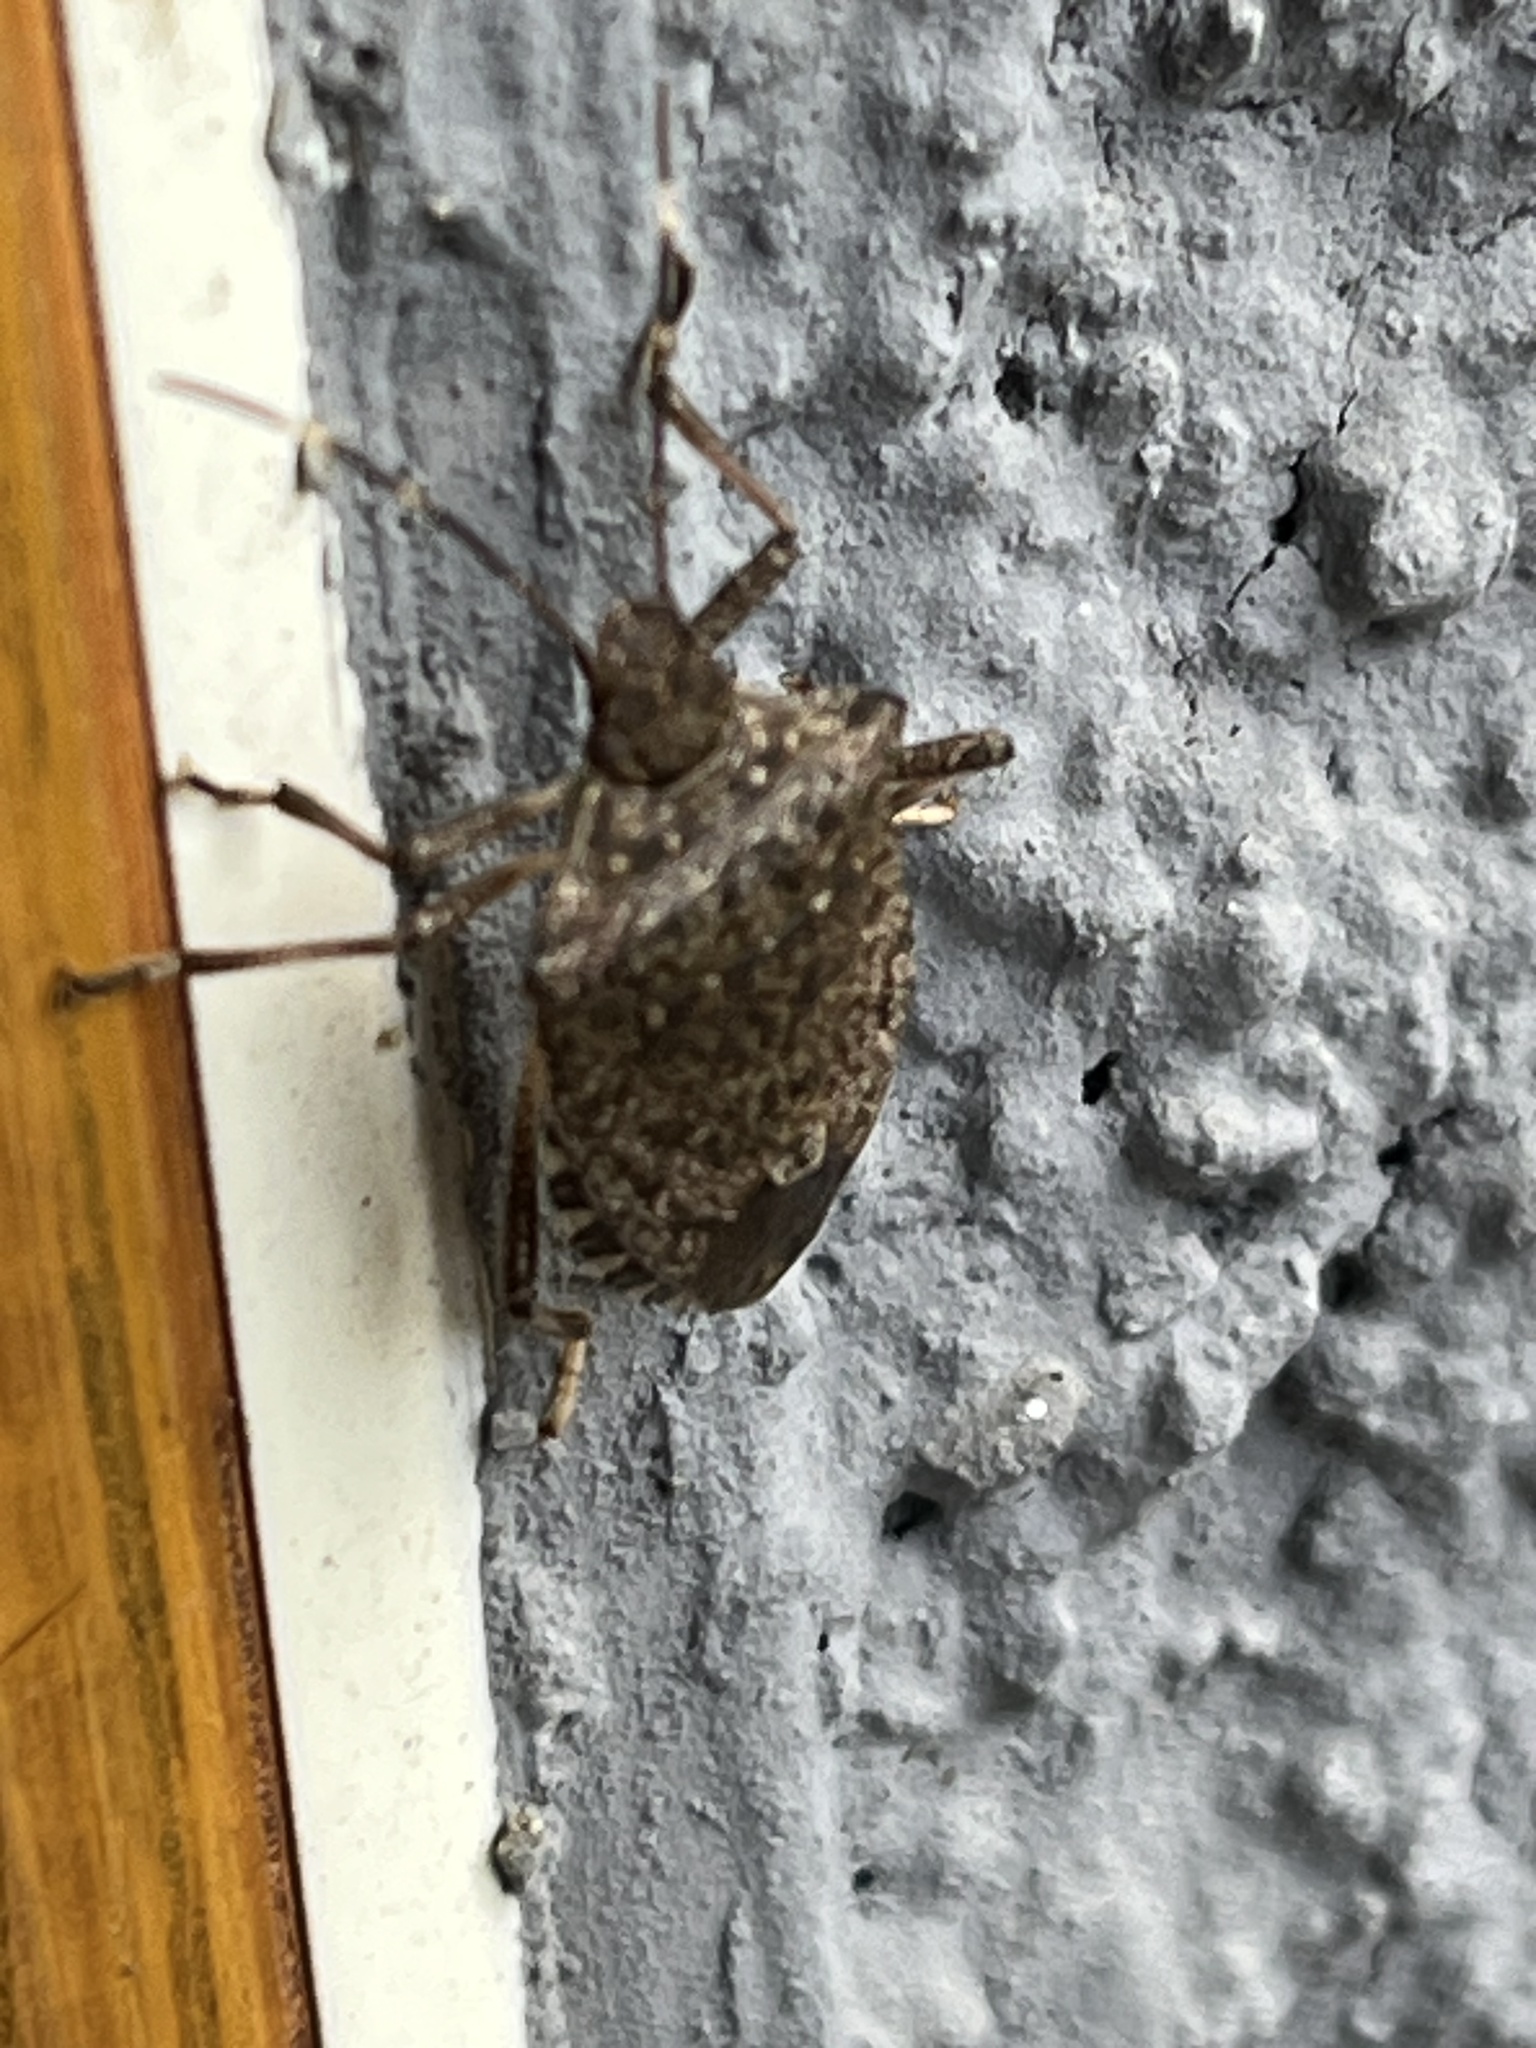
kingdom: Animalia
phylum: Arthropoda
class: Insecta
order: Hemiptera
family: Pentatomidae
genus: Halyomorpha
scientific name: Halyomorpha halys
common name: Brown marmorated stink bug
